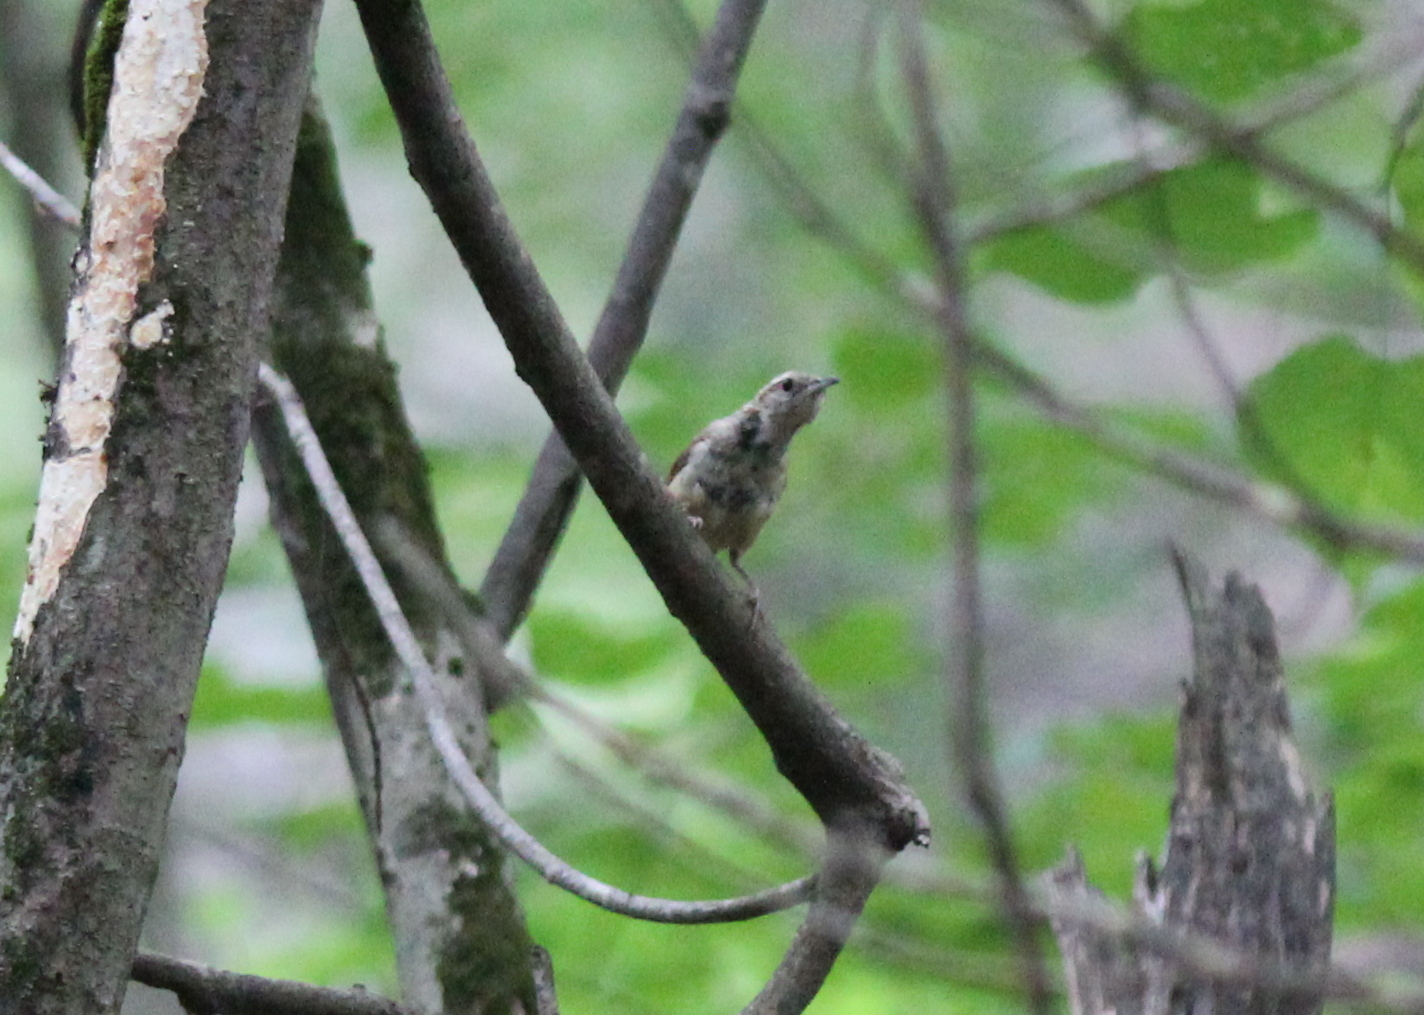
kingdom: Animalia
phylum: Chordata
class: Aves
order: Passeriformes
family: Troglodytidae
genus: Thryothorus
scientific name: Thryothorus ludovicianus
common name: Carolina wren
